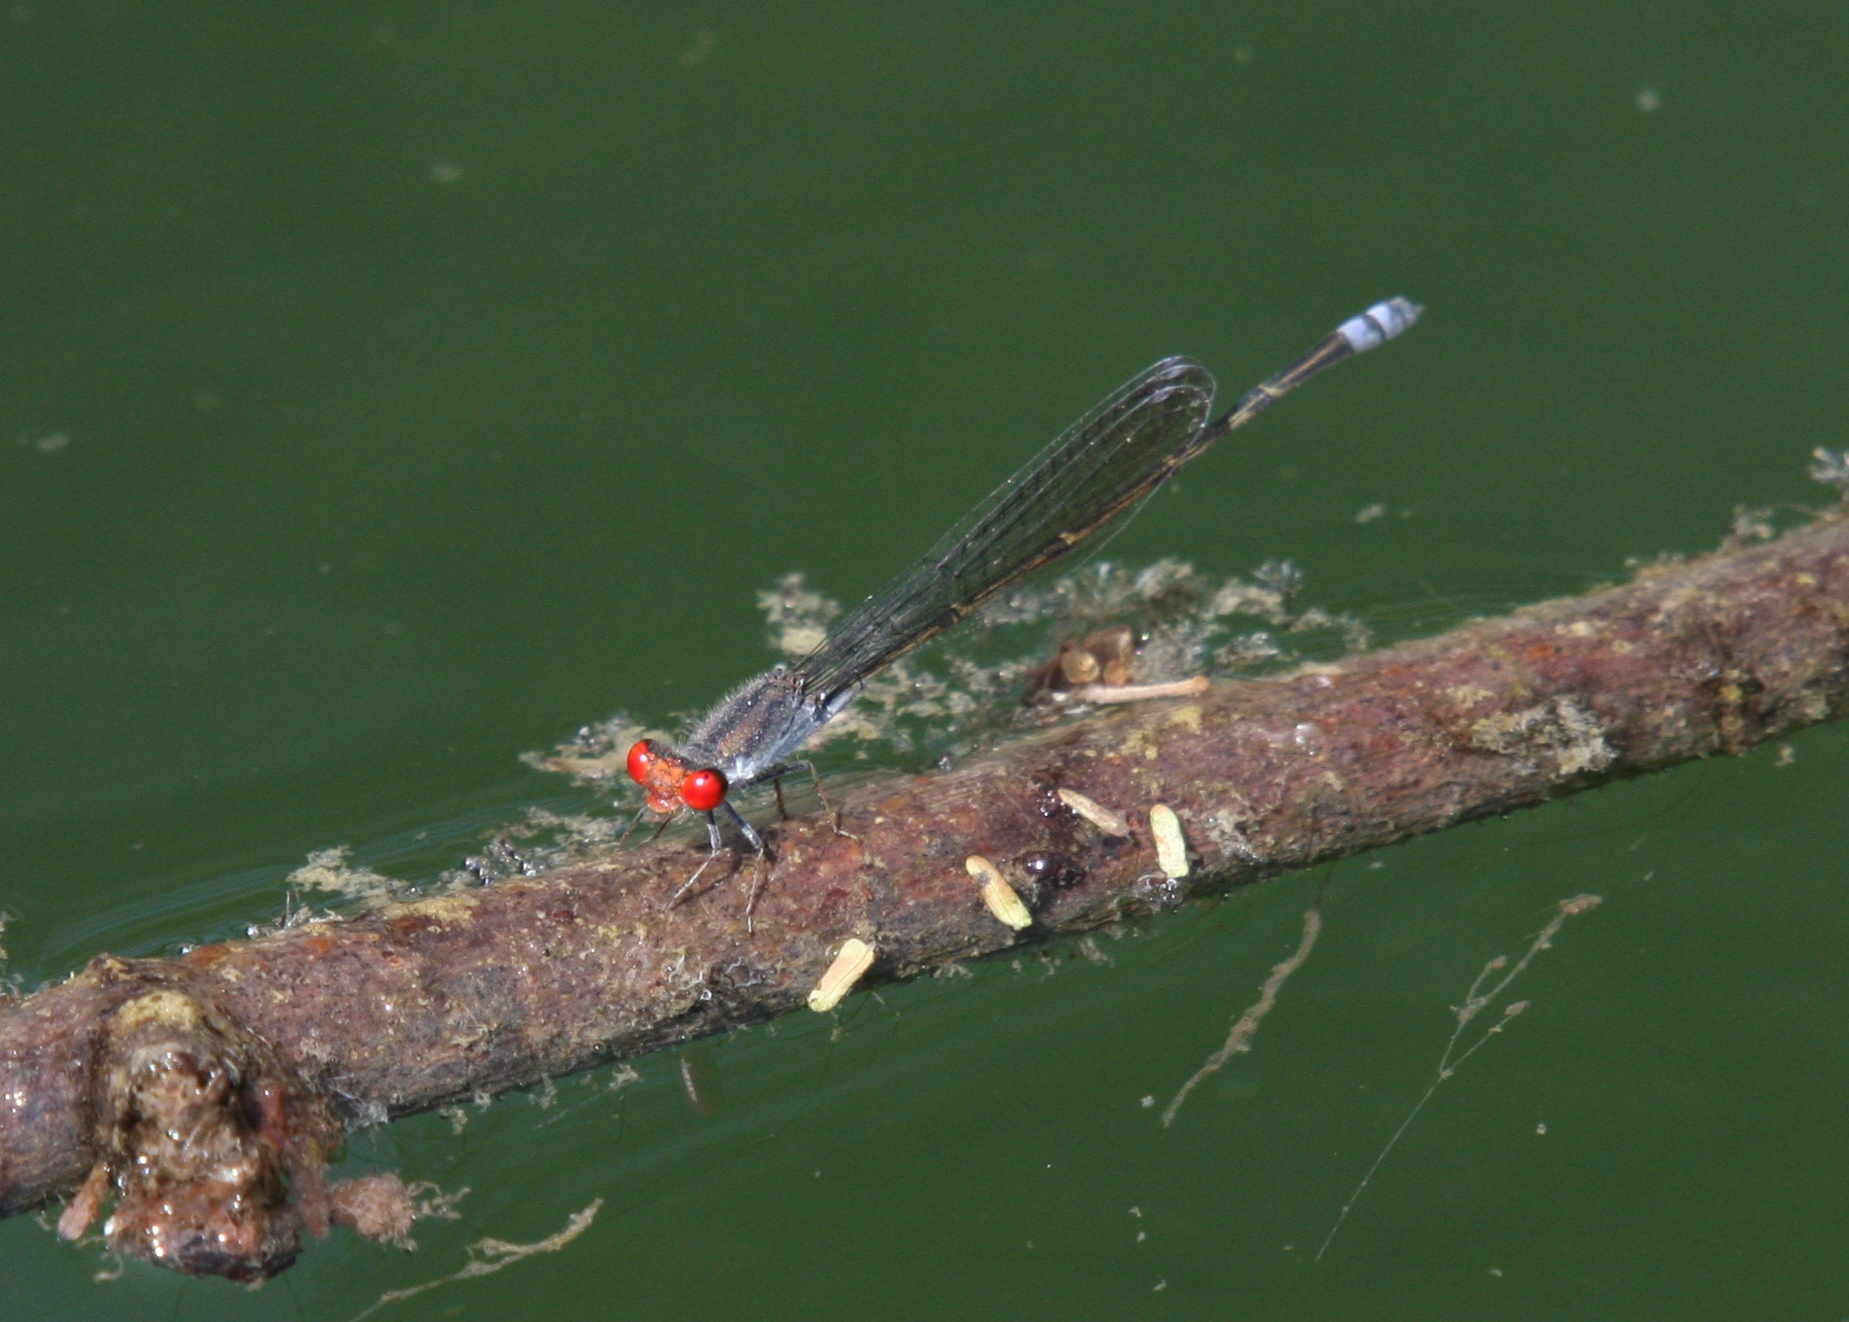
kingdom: Animalia
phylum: Arthropoda
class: Insecta
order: Odonata
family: Coenagrionidae
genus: Pseudagrion
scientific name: Pseudagrion sublacteum
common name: Cherry-eye sprite
